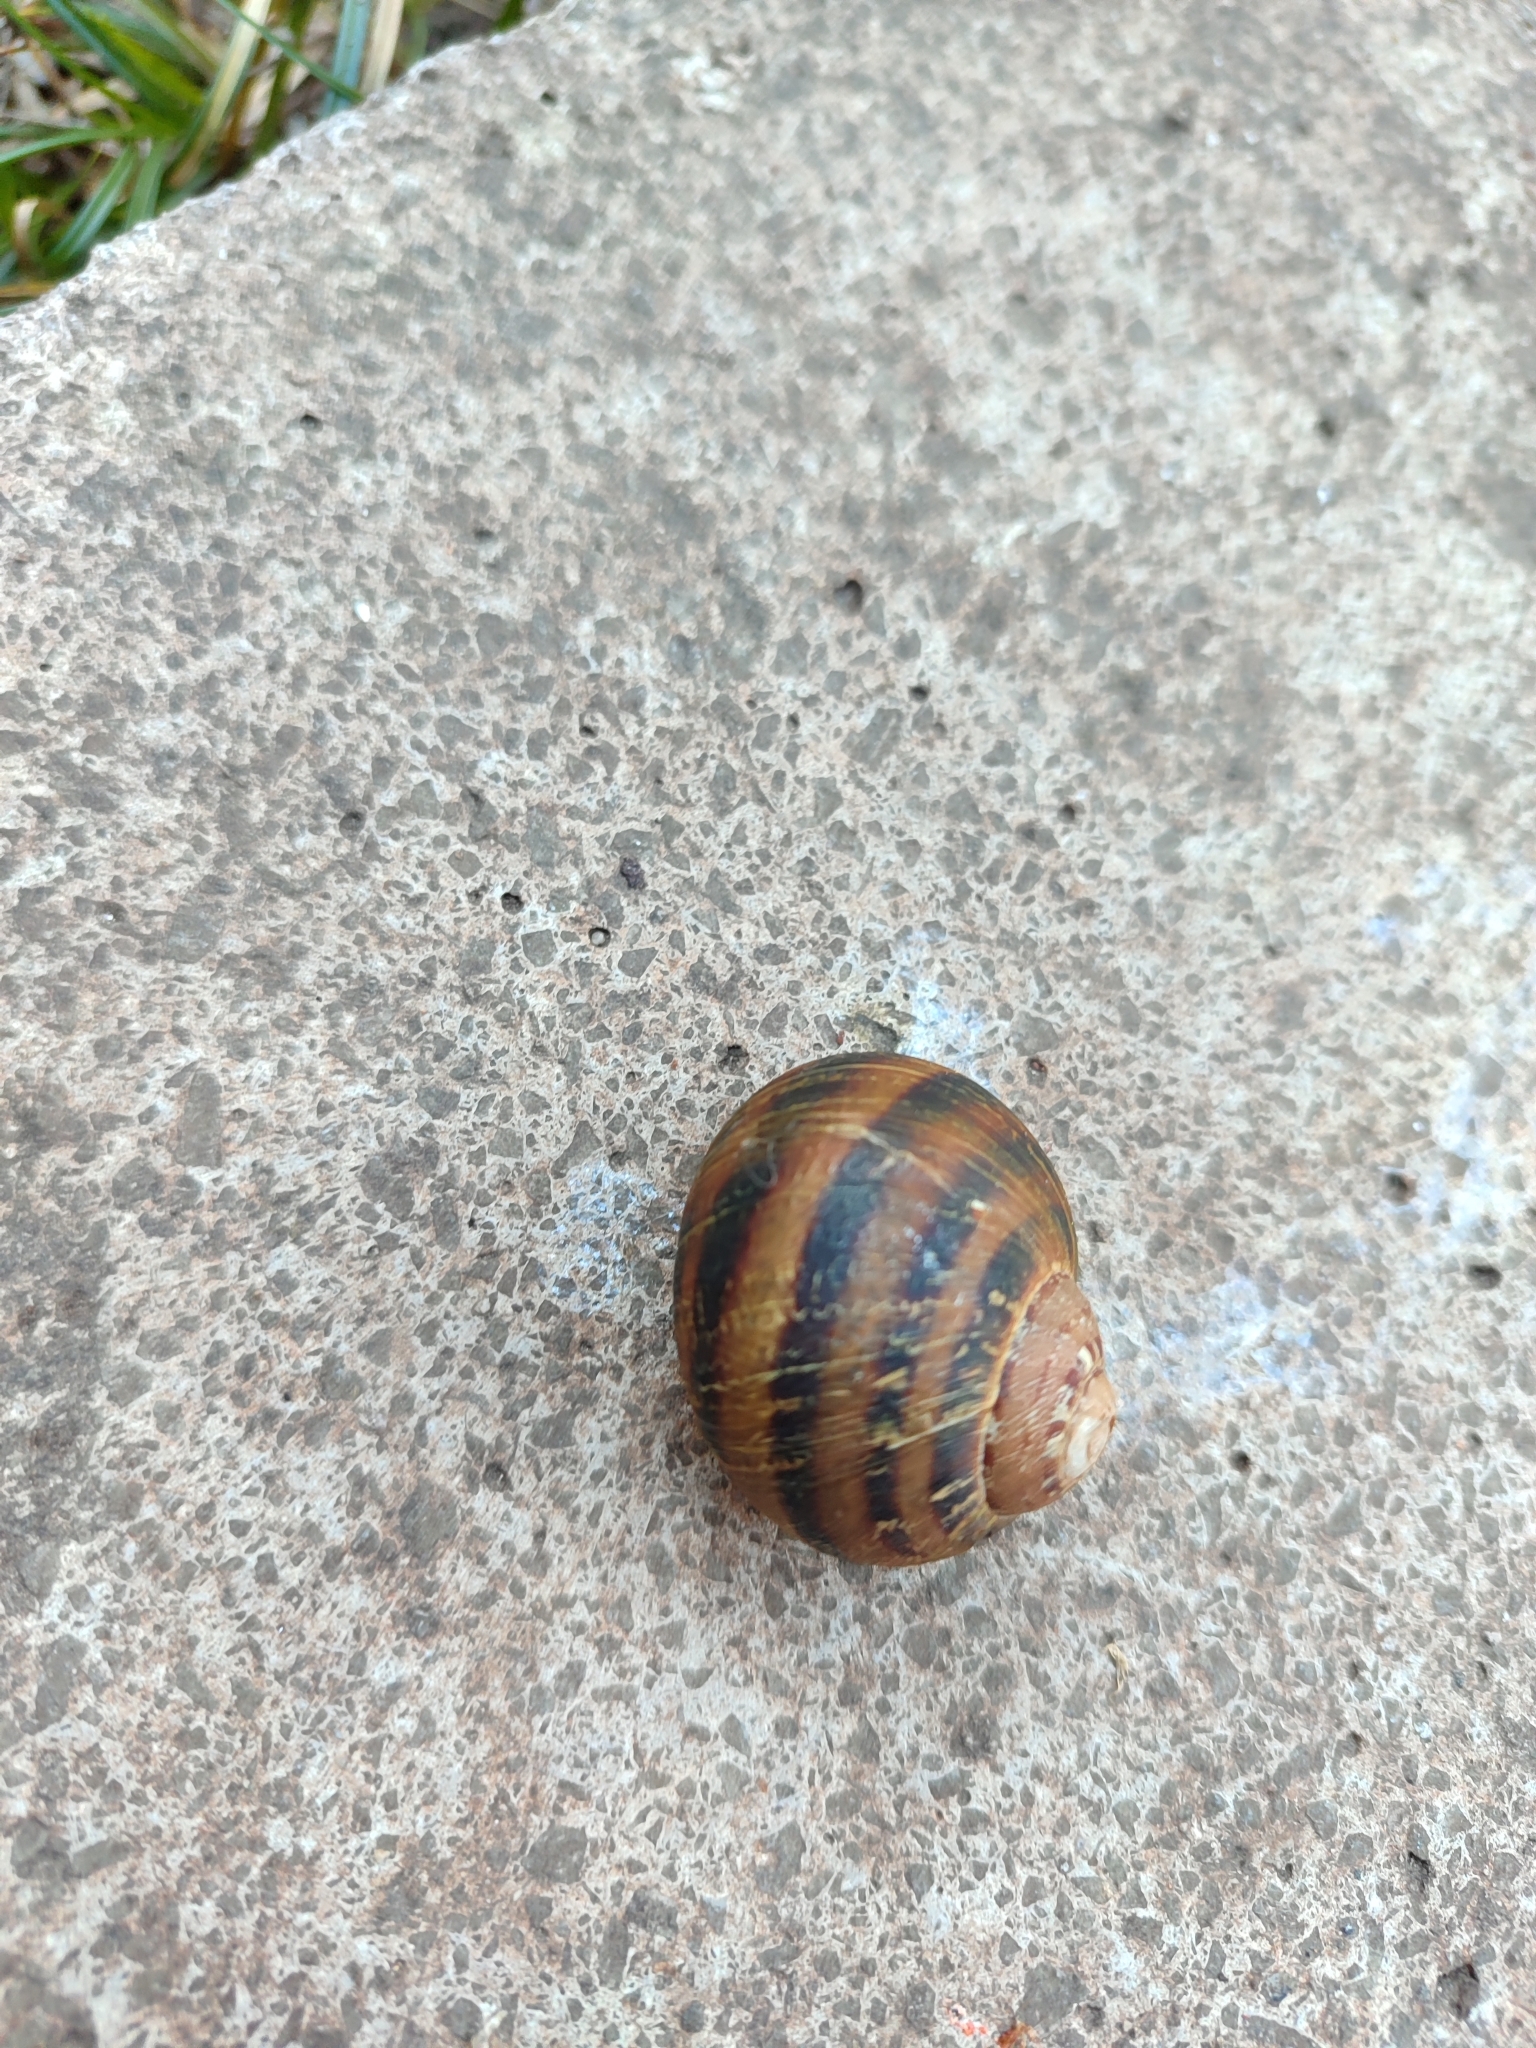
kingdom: Animalia
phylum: Mollusca
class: Gastropoda
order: Stylommatophora
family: Helicidae
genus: Cornu
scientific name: Cornu aspersum
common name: Brown garden snail
